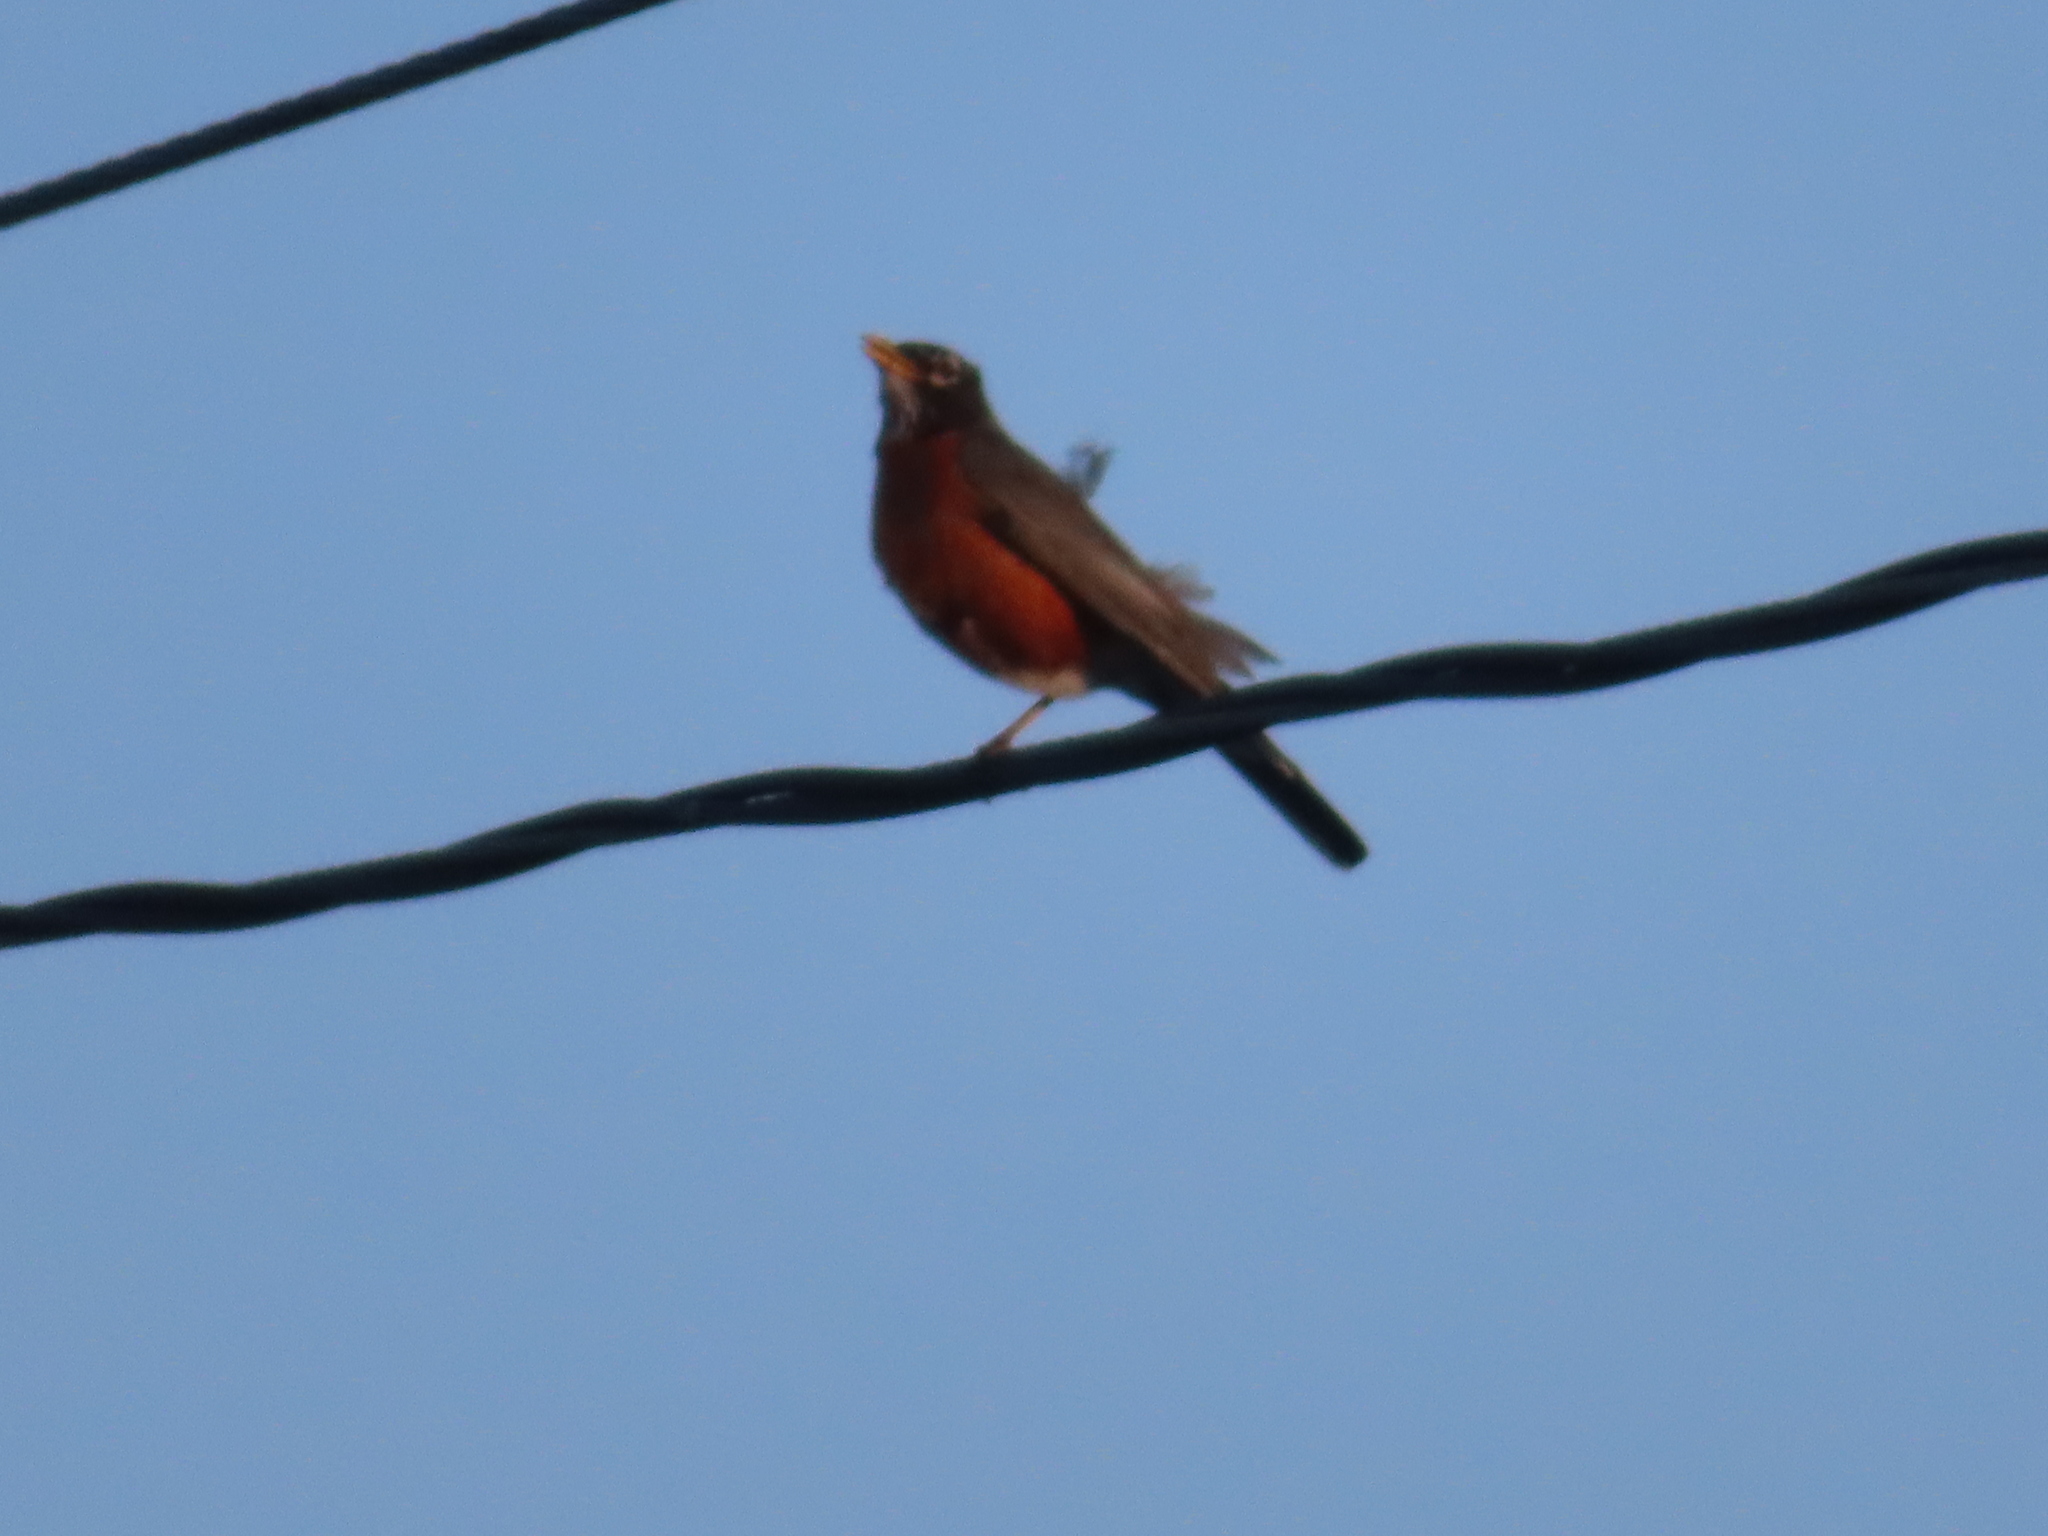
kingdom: Animalia
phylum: Chordata
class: Aves
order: Passeriformes
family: Turdidae
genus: Turdus
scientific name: Turdus migratorius
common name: American robin
